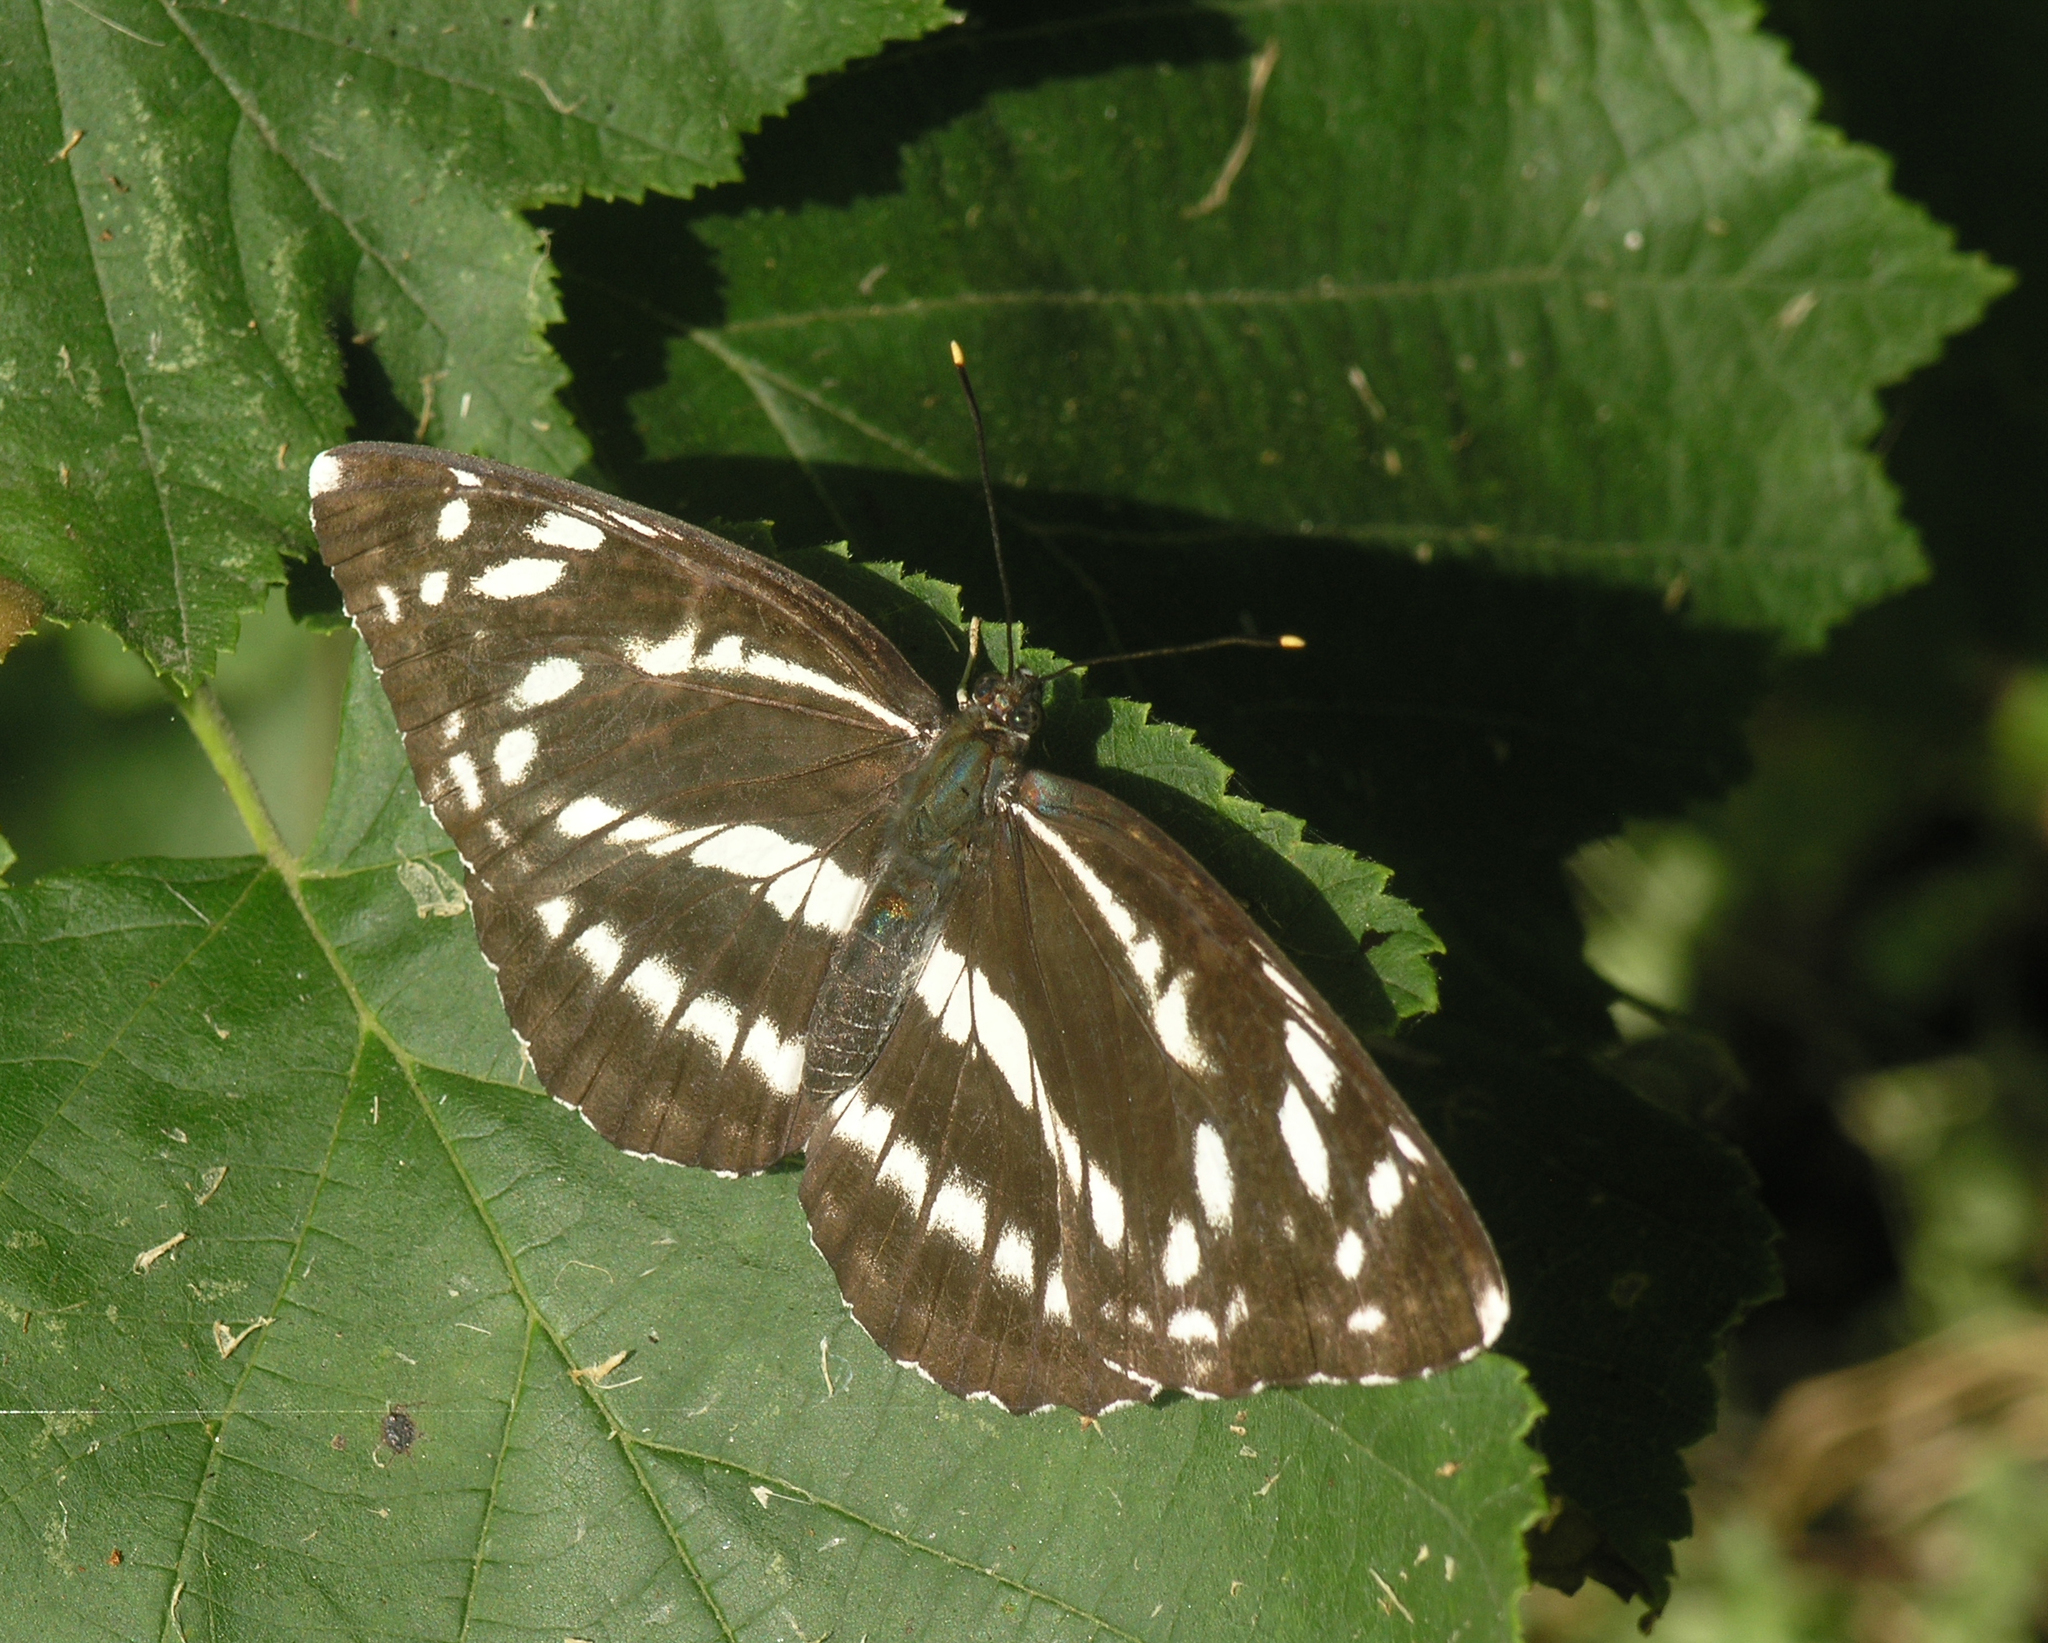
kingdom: Animalia
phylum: Arthropoda
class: Insecta
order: Lepidoptera
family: Nymphalidae
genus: Neptis
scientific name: Neptis alwina
